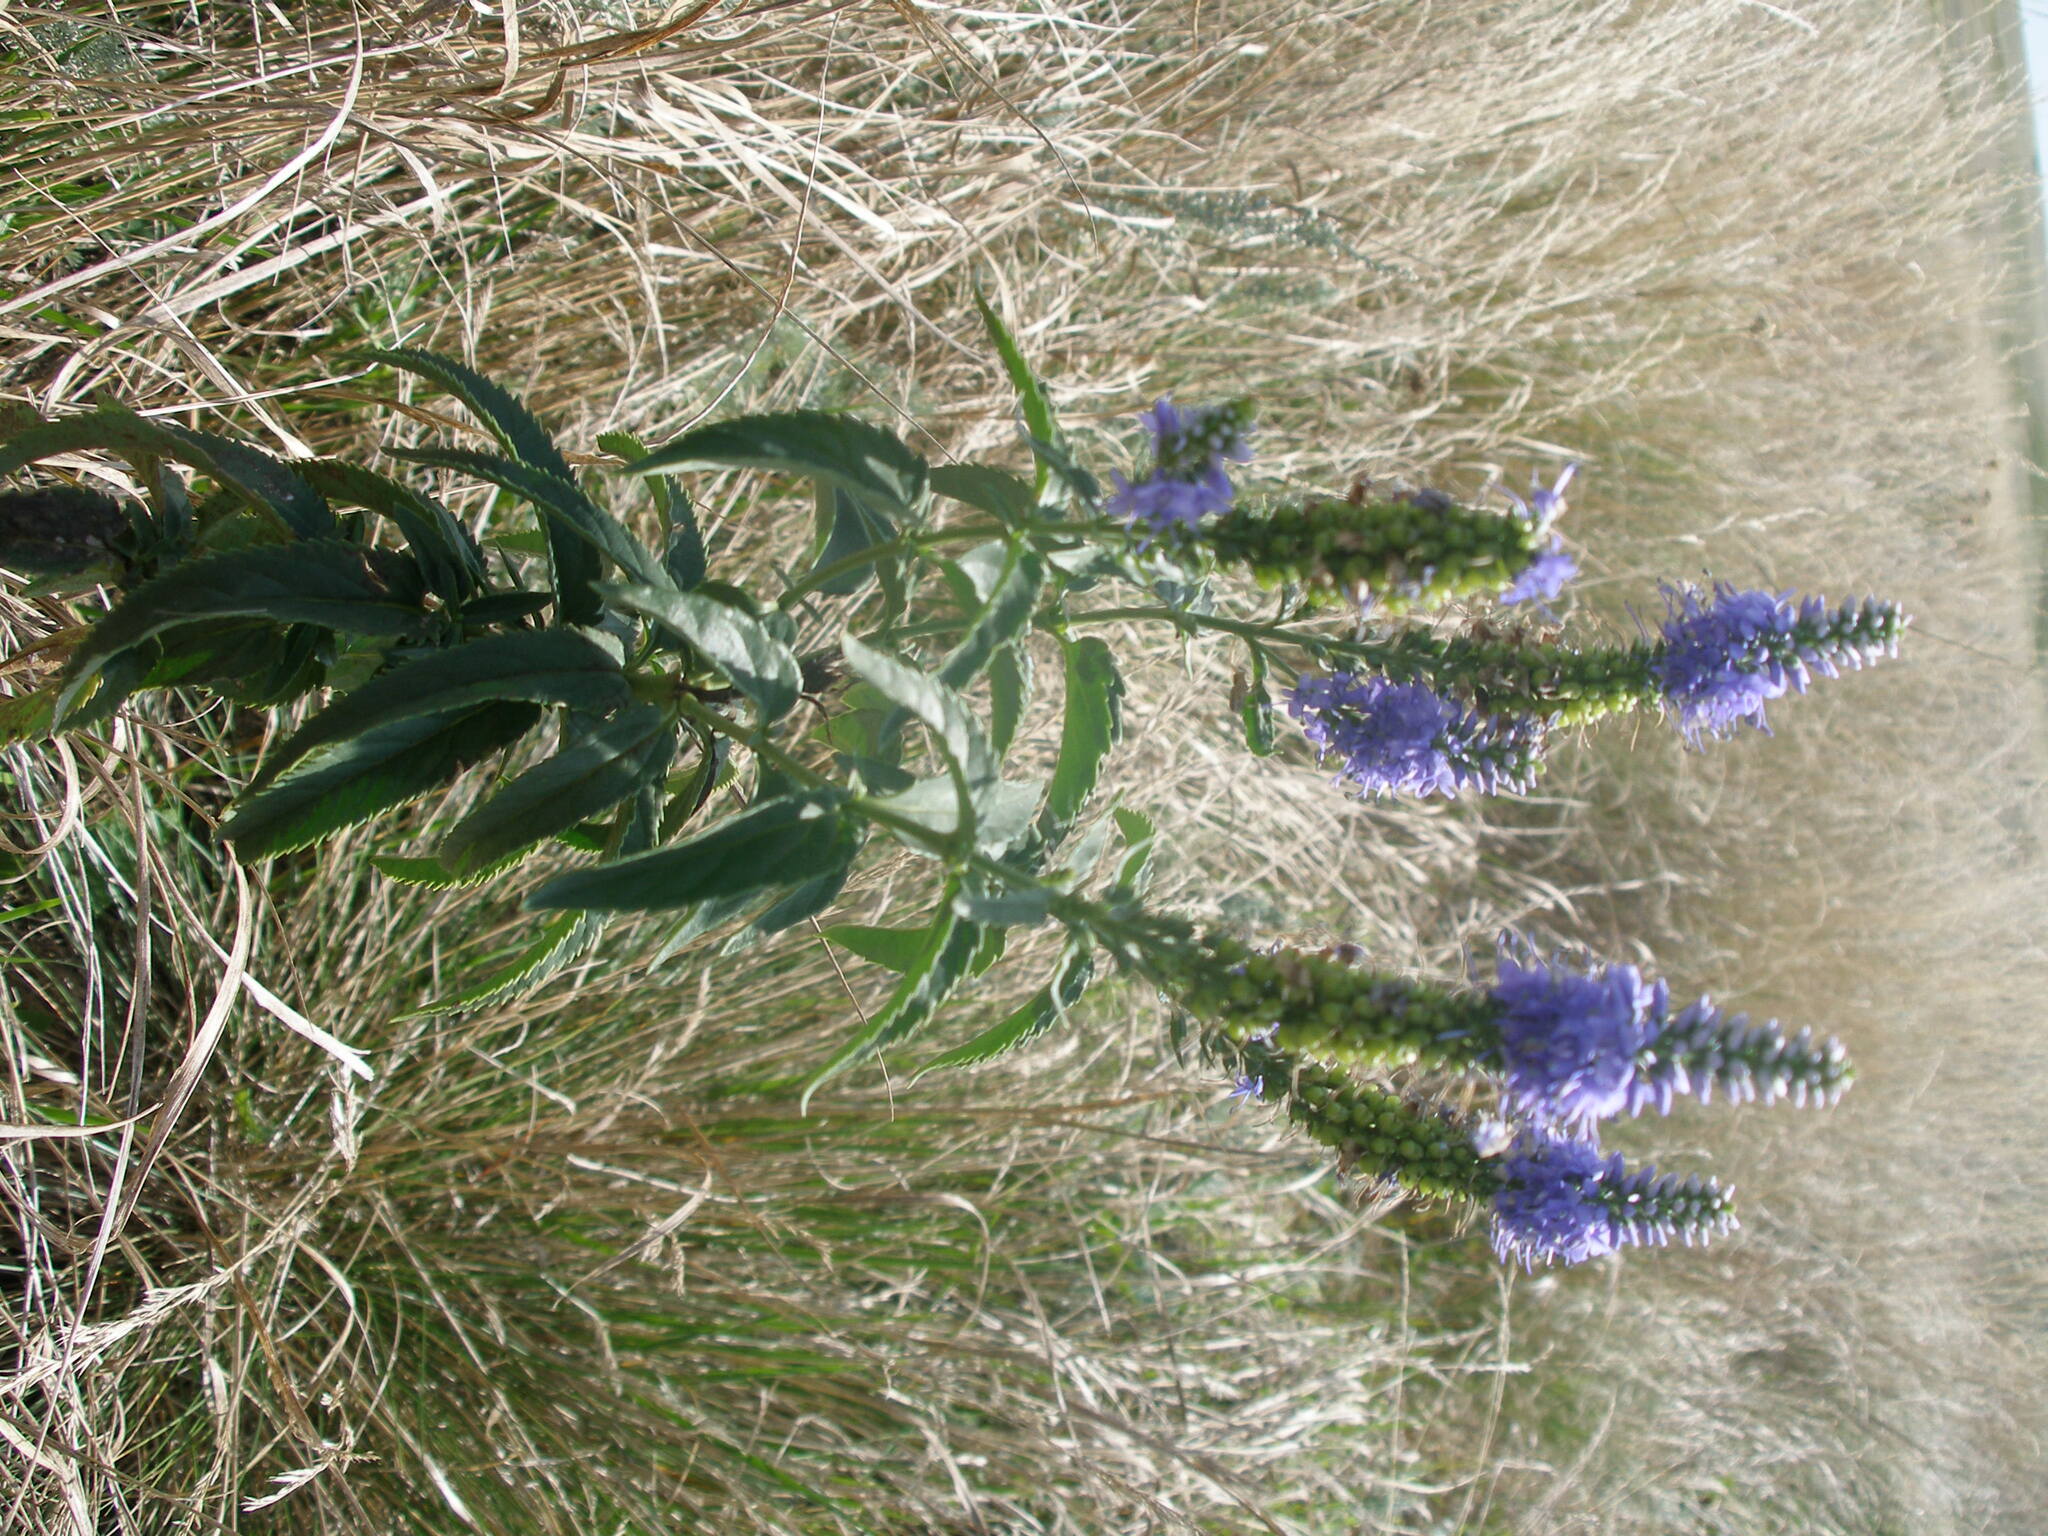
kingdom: Plantae
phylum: Tracheophyta
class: Magnoliopsida
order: Lamiales
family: Plantaginaceae
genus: Veronica
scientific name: Veronica longifolia
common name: Garden speedwell
